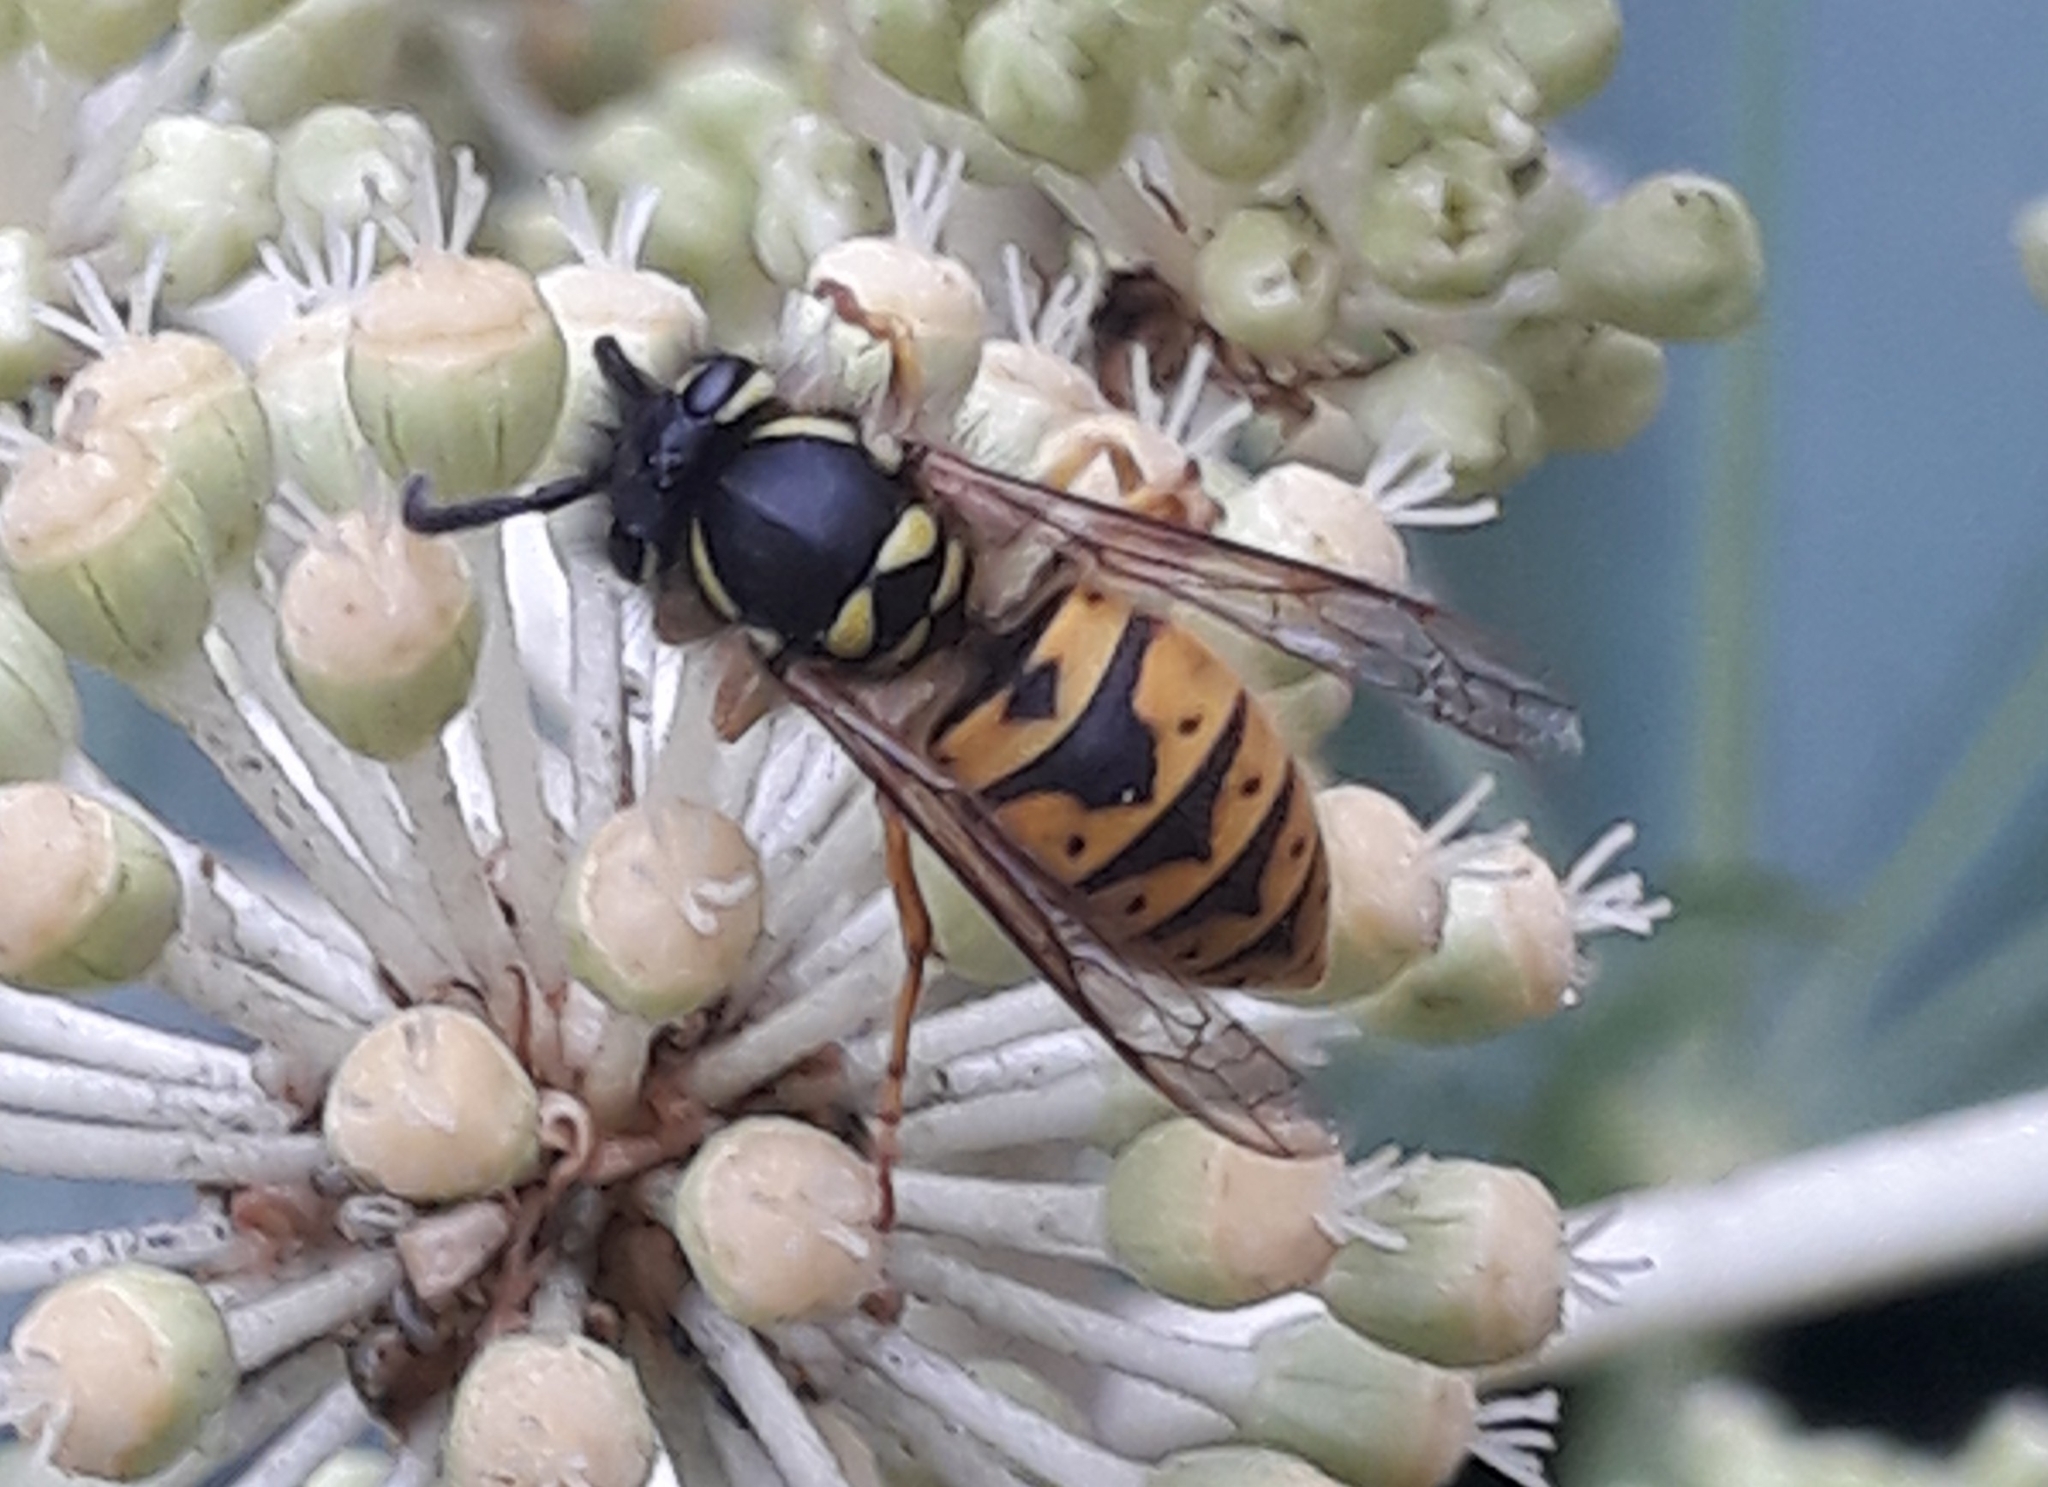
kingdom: Animalia
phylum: Arthropoda
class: Insecta
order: Hymenoptera
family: Vespidae
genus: Vespula
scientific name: Vespula vulgaris
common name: Common wasp
